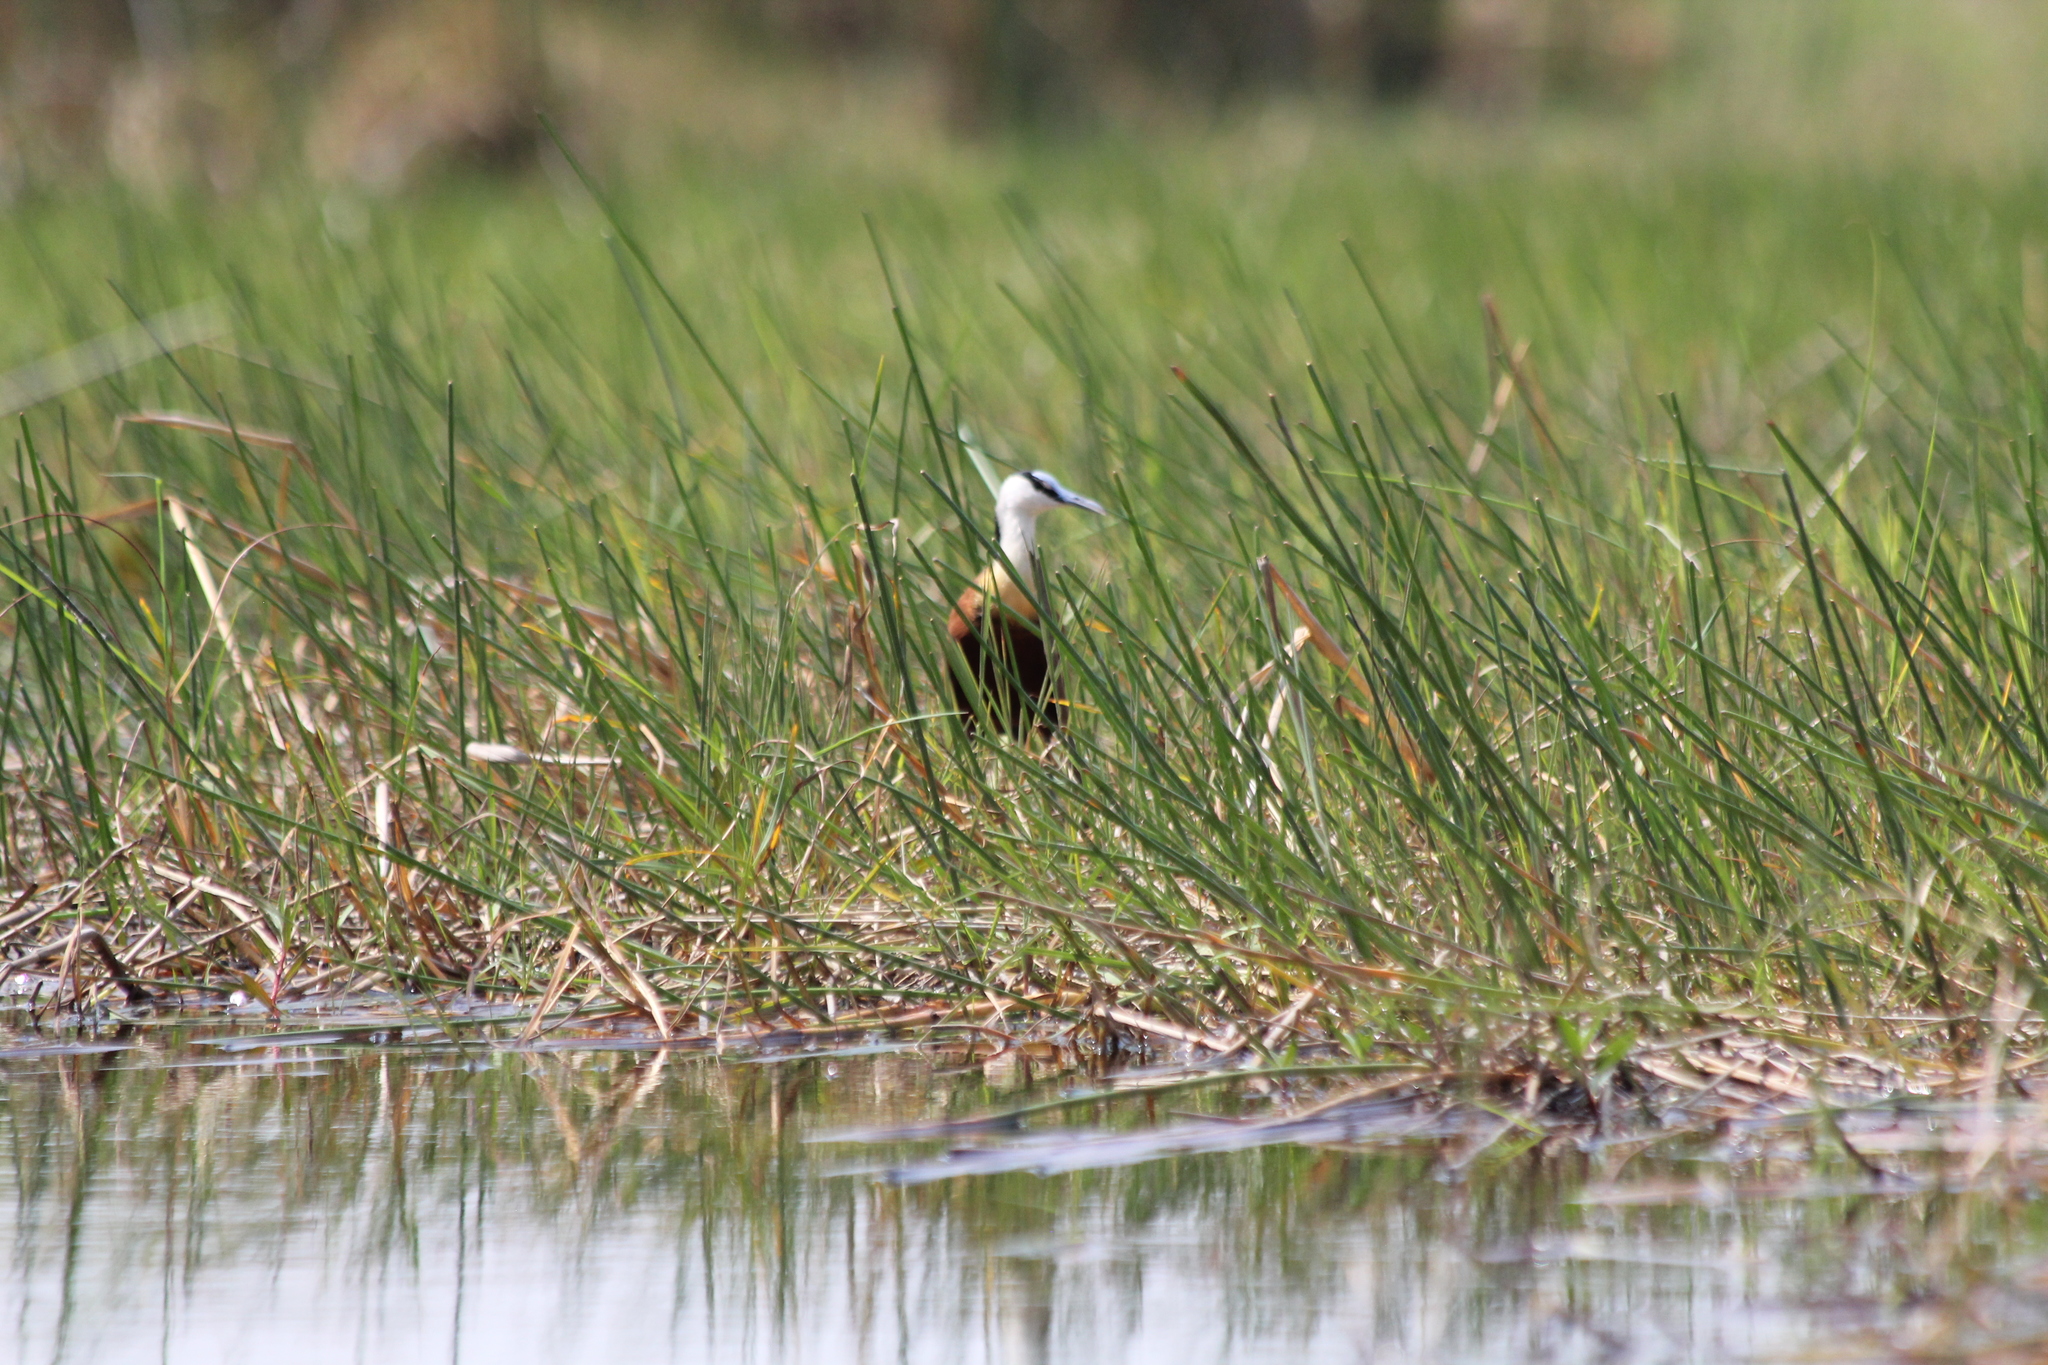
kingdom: Animalia
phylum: Chordata
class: Aves
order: Charadriiformes
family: Jacanidae
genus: Actophilornis
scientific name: Actophilornis africanus
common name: African jacana
